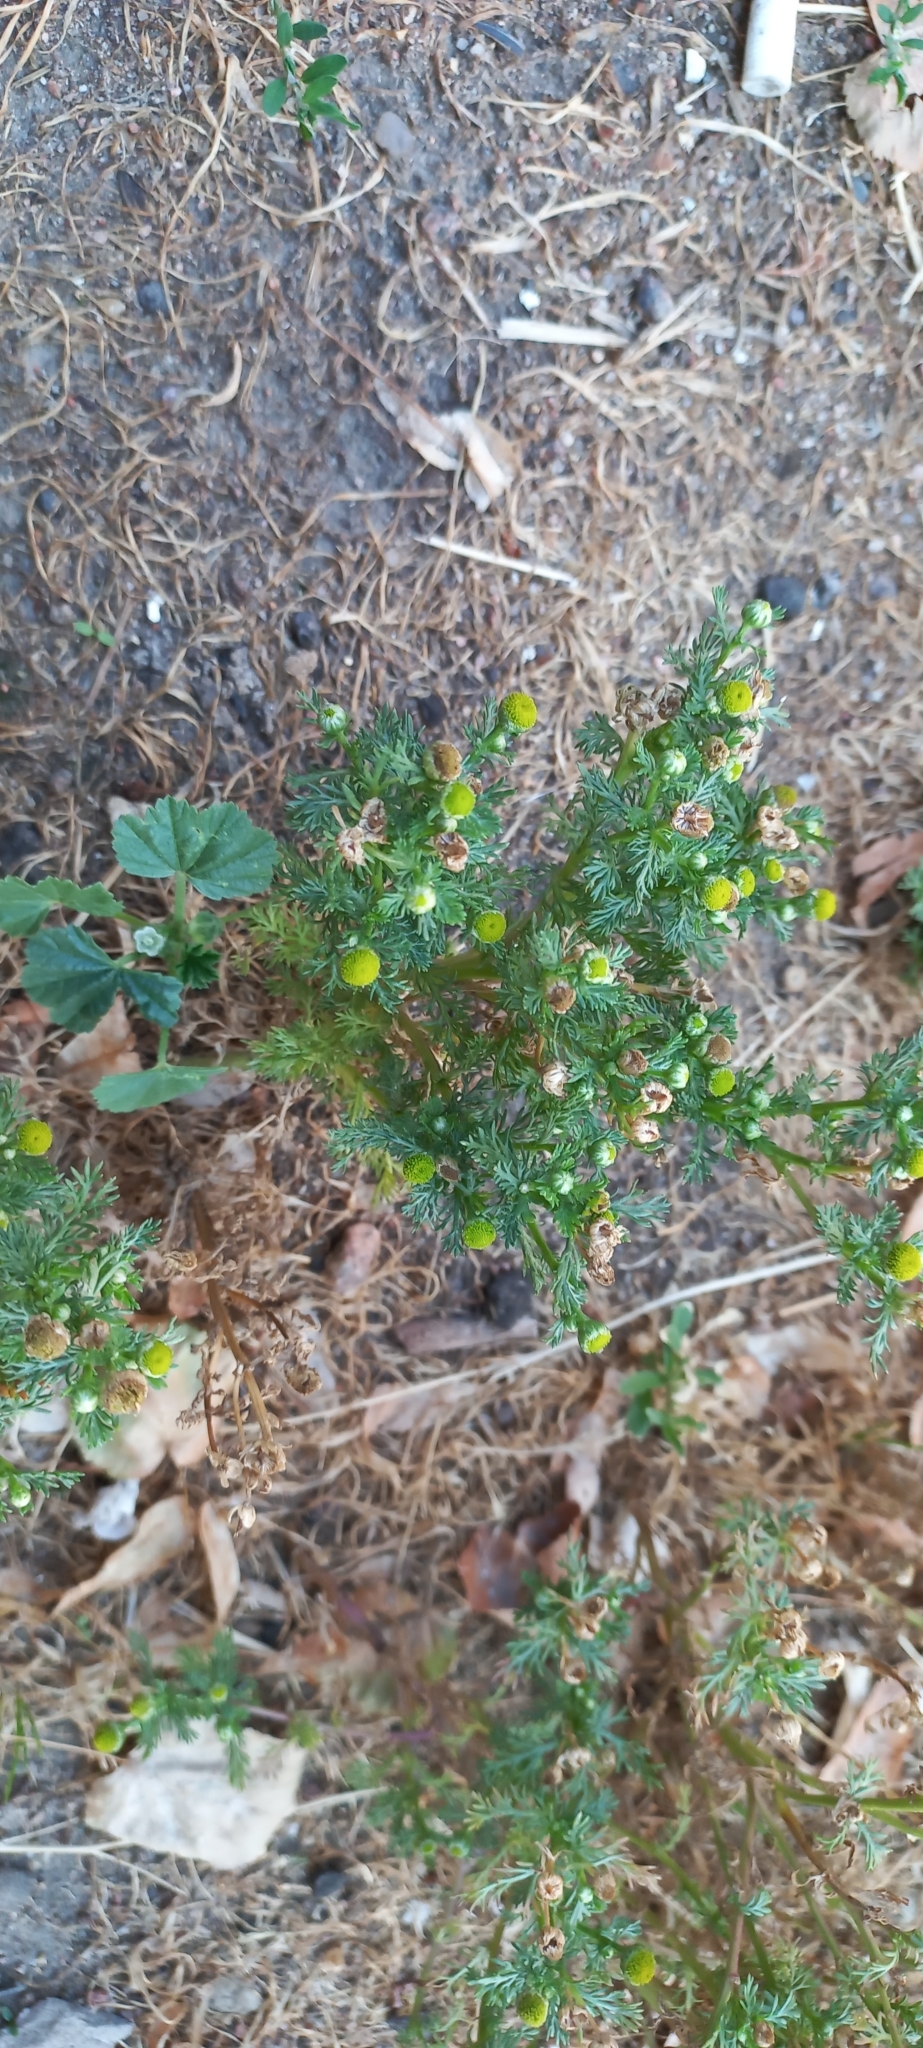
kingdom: Plantae
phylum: Tracheophyta
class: Magnoliopsida
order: Asterales
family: Asteraceae
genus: Matricaria
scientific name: Matricaria discoidea
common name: Disc mayweed
